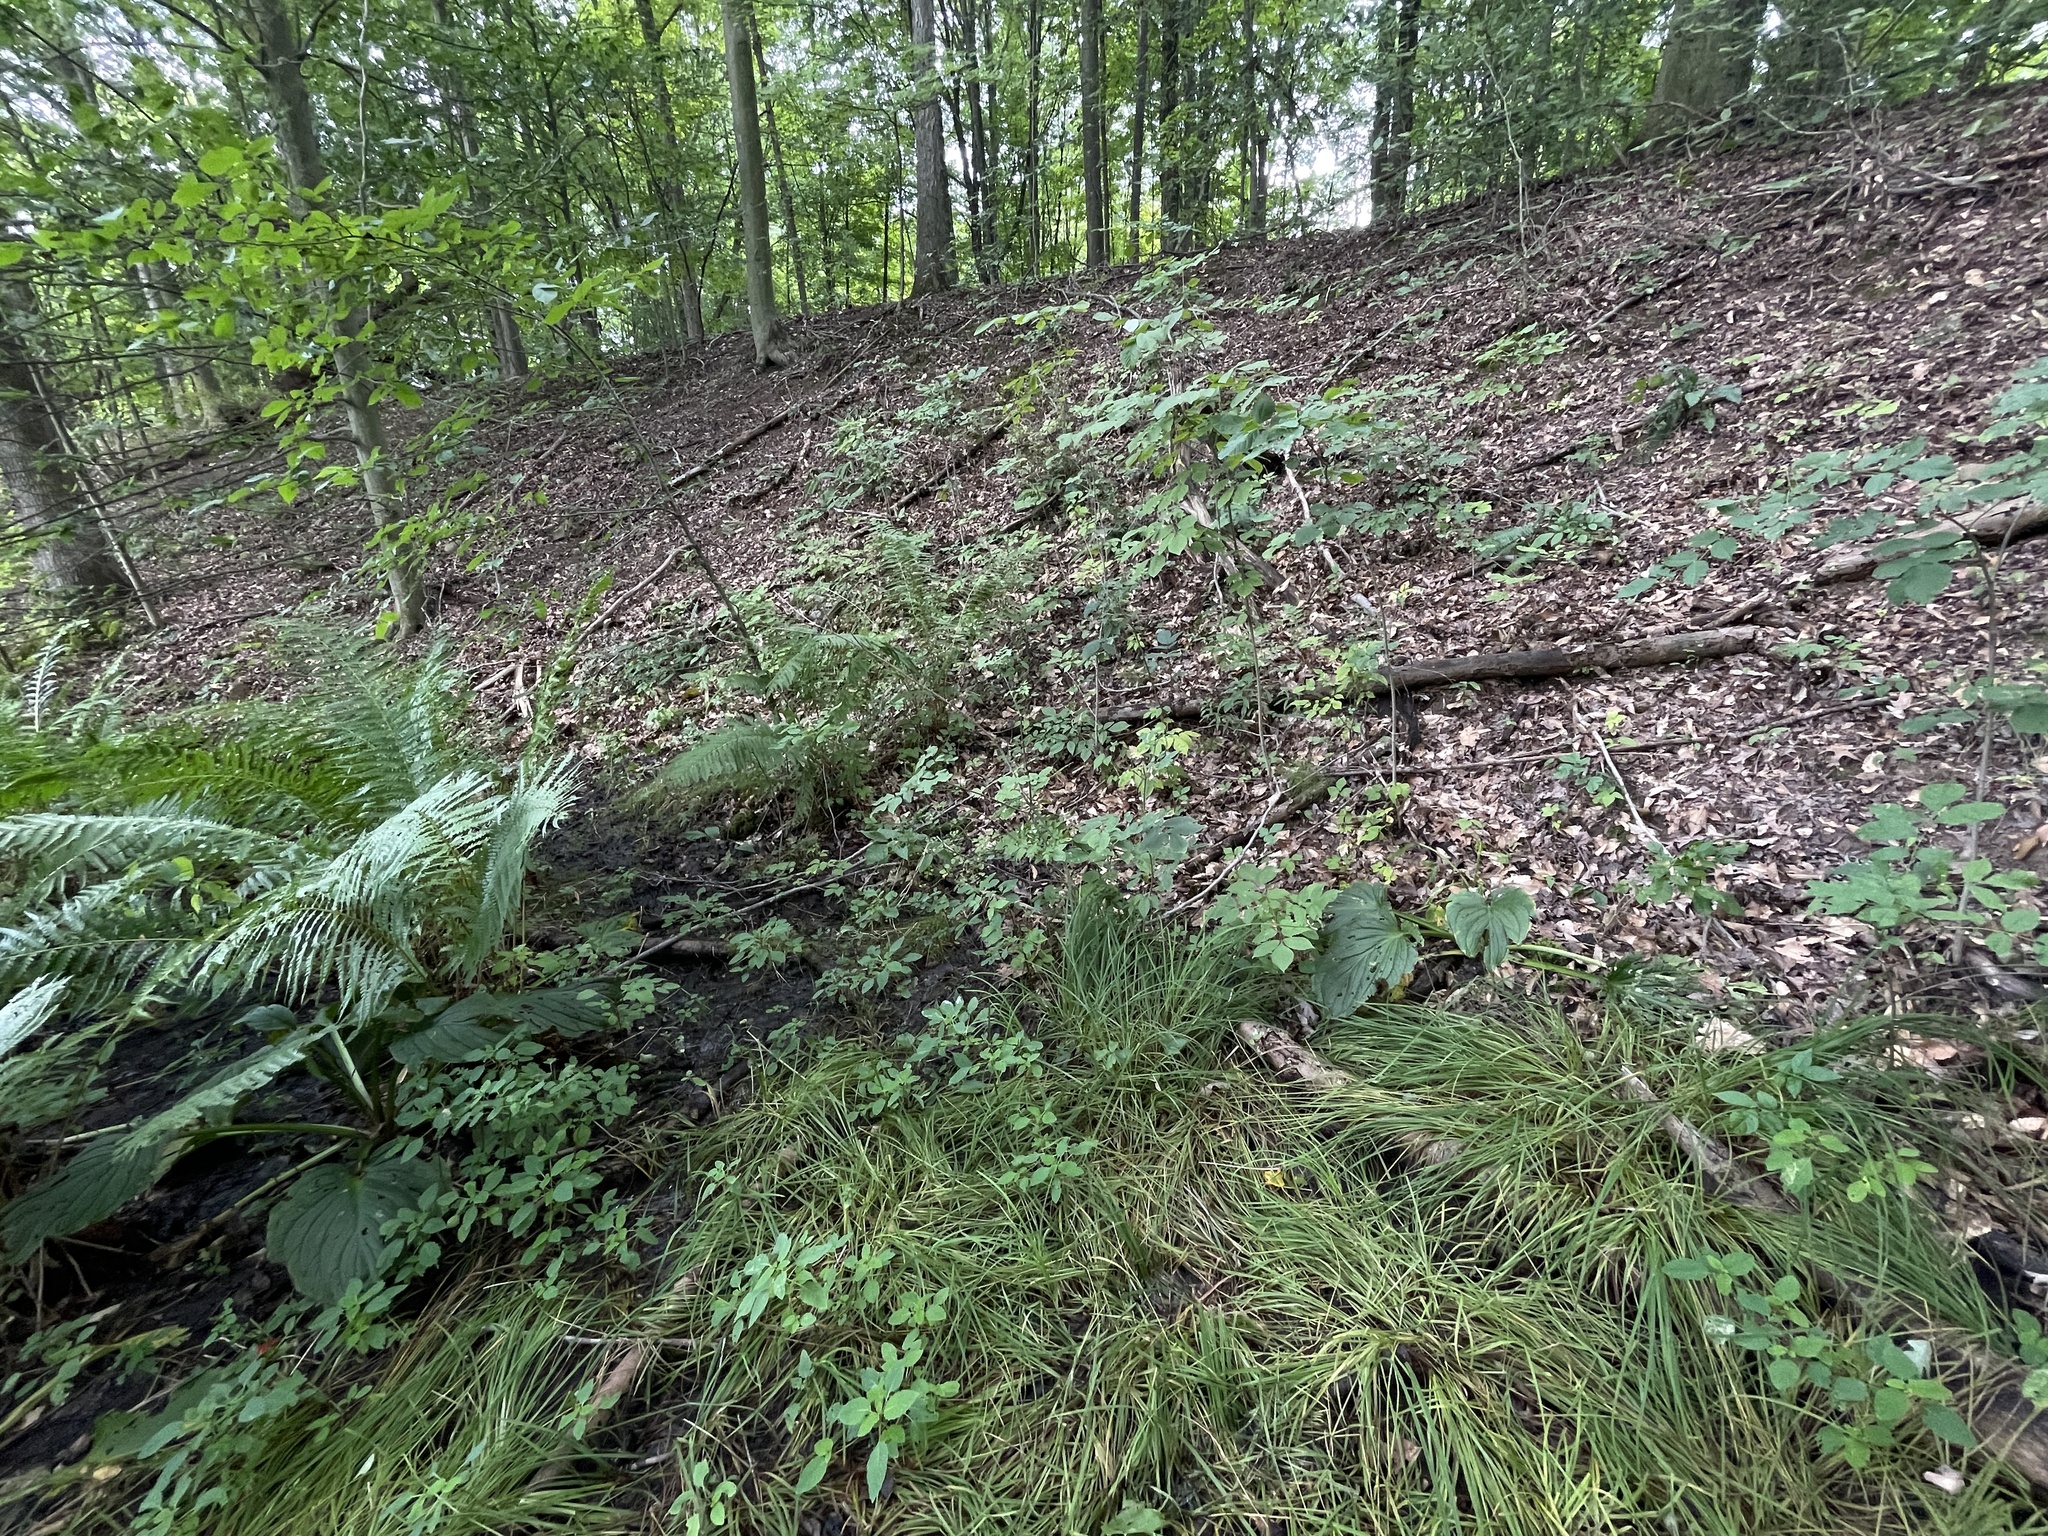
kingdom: Plantae
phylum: Tracheophyta
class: Polypodiopsida
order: Equisetales
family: Equisetaceae
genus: Equisetum
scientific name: Equisetum sylvaticum
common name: Wood horsetail
